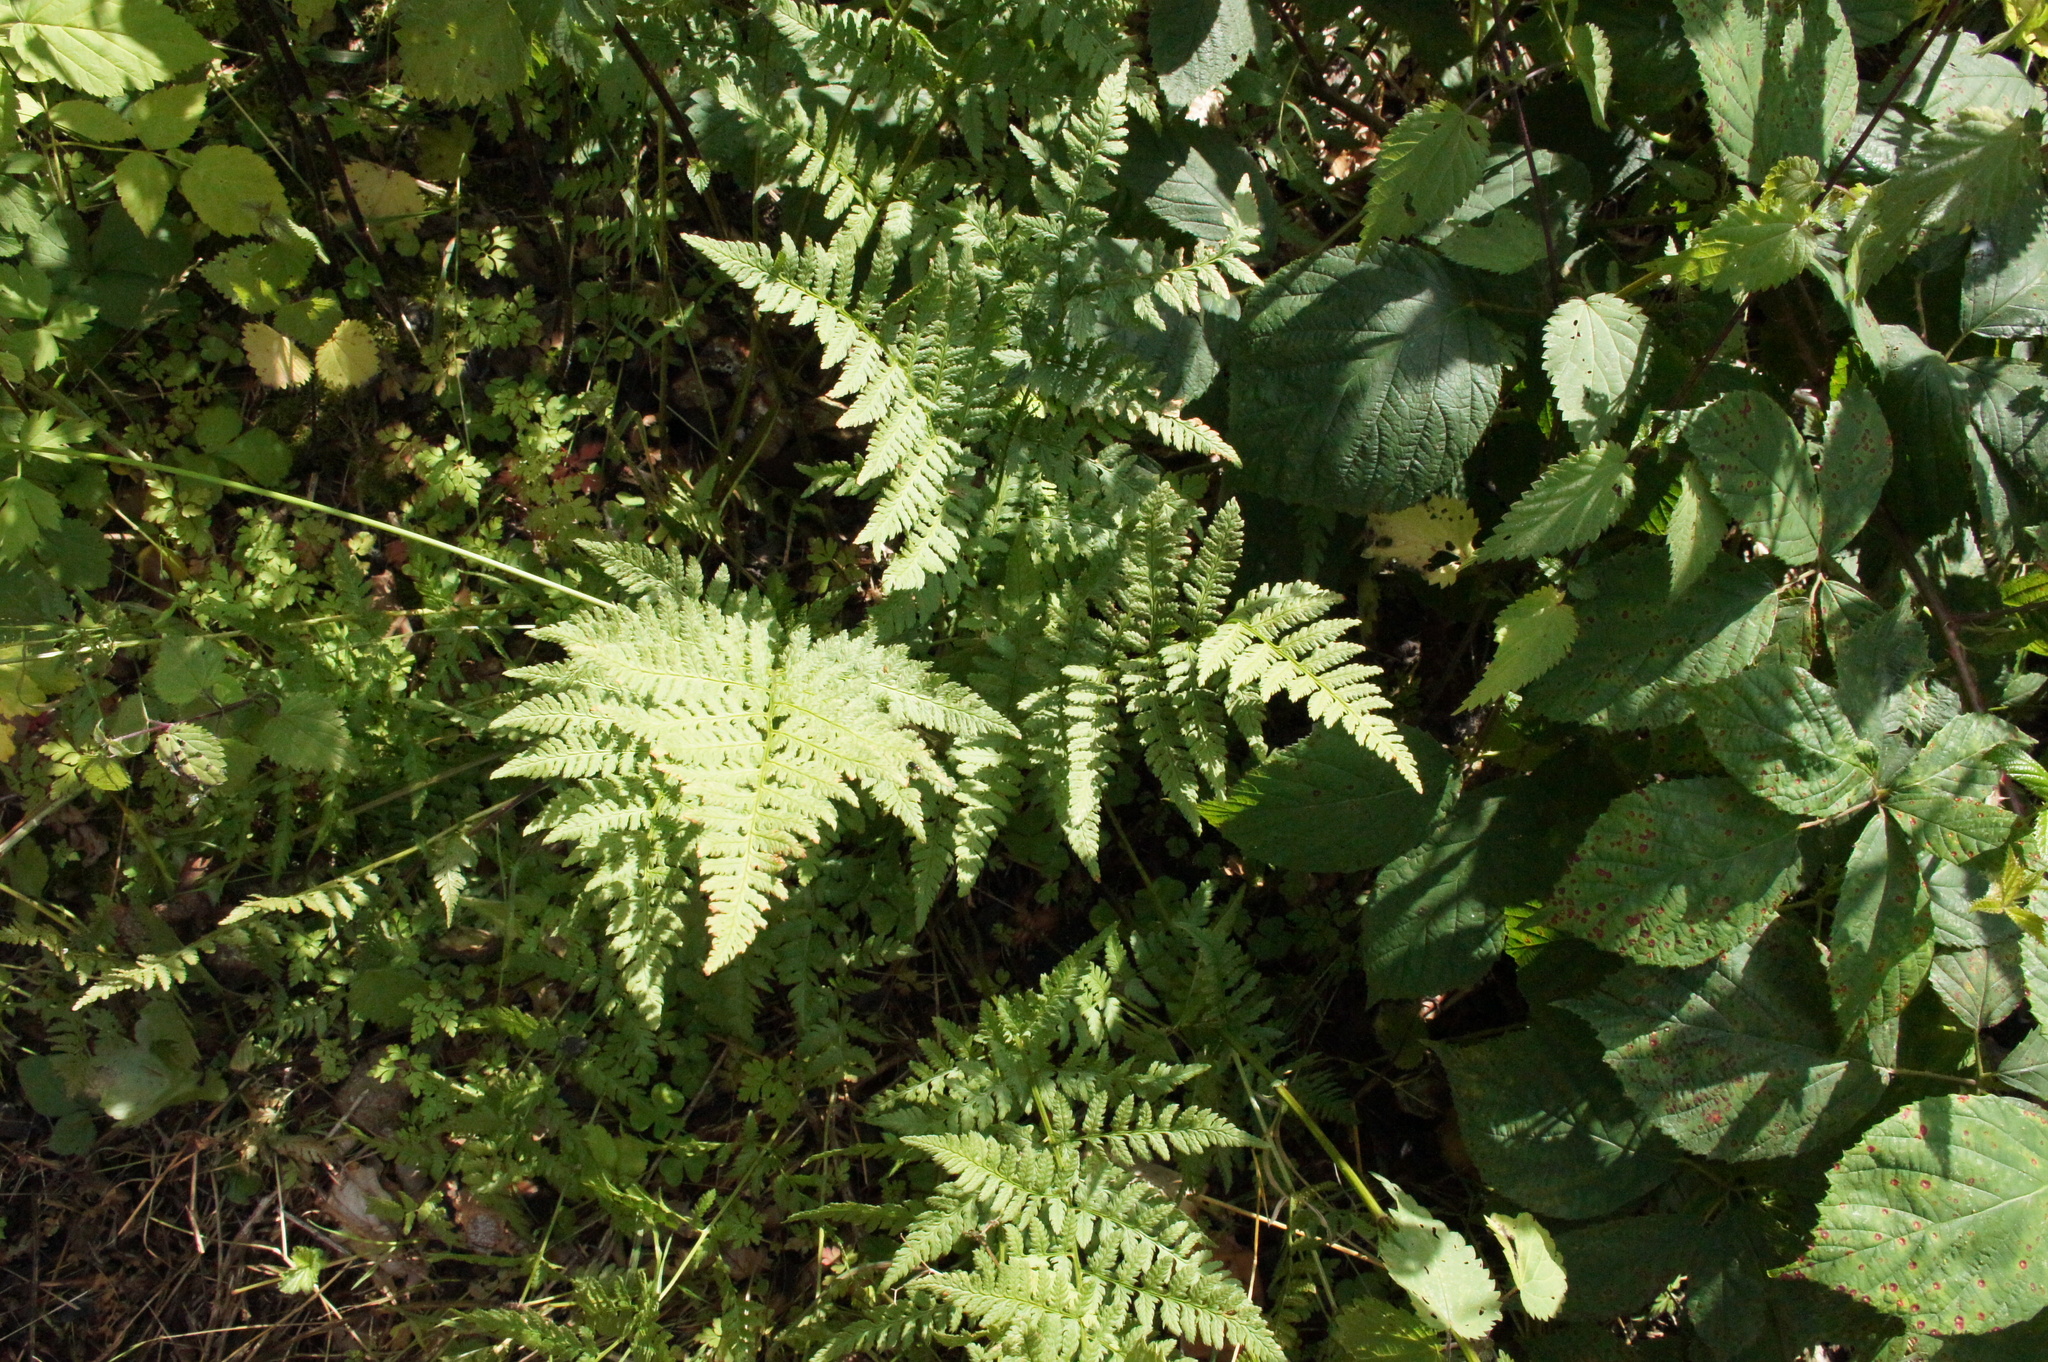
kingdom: Plantae
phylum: Tracheophyta
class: Polypodiopsida
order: Polypodiales
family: Dryopteridaceae
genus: Dryopteris
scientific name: Dryopteris carthusiana
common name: Narrow buckler-fern
